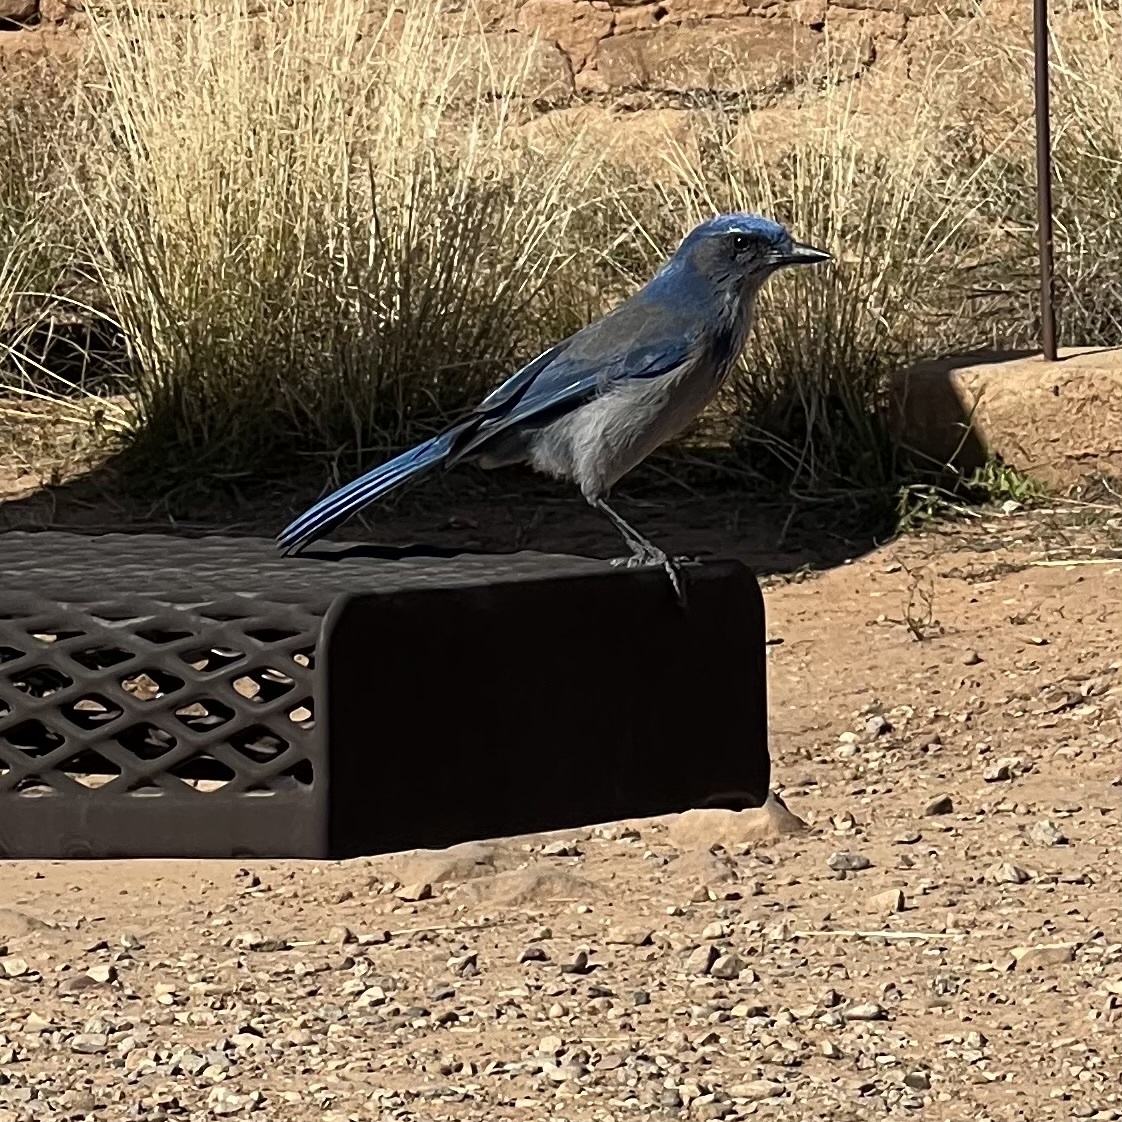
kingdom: Animalia
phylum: Chordata
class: Aves
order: Passeriformes
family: Corvidae
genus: Aphelocoma
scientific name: Aphelocoma woodhouseii
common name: Woodhouse's scrub-jay
